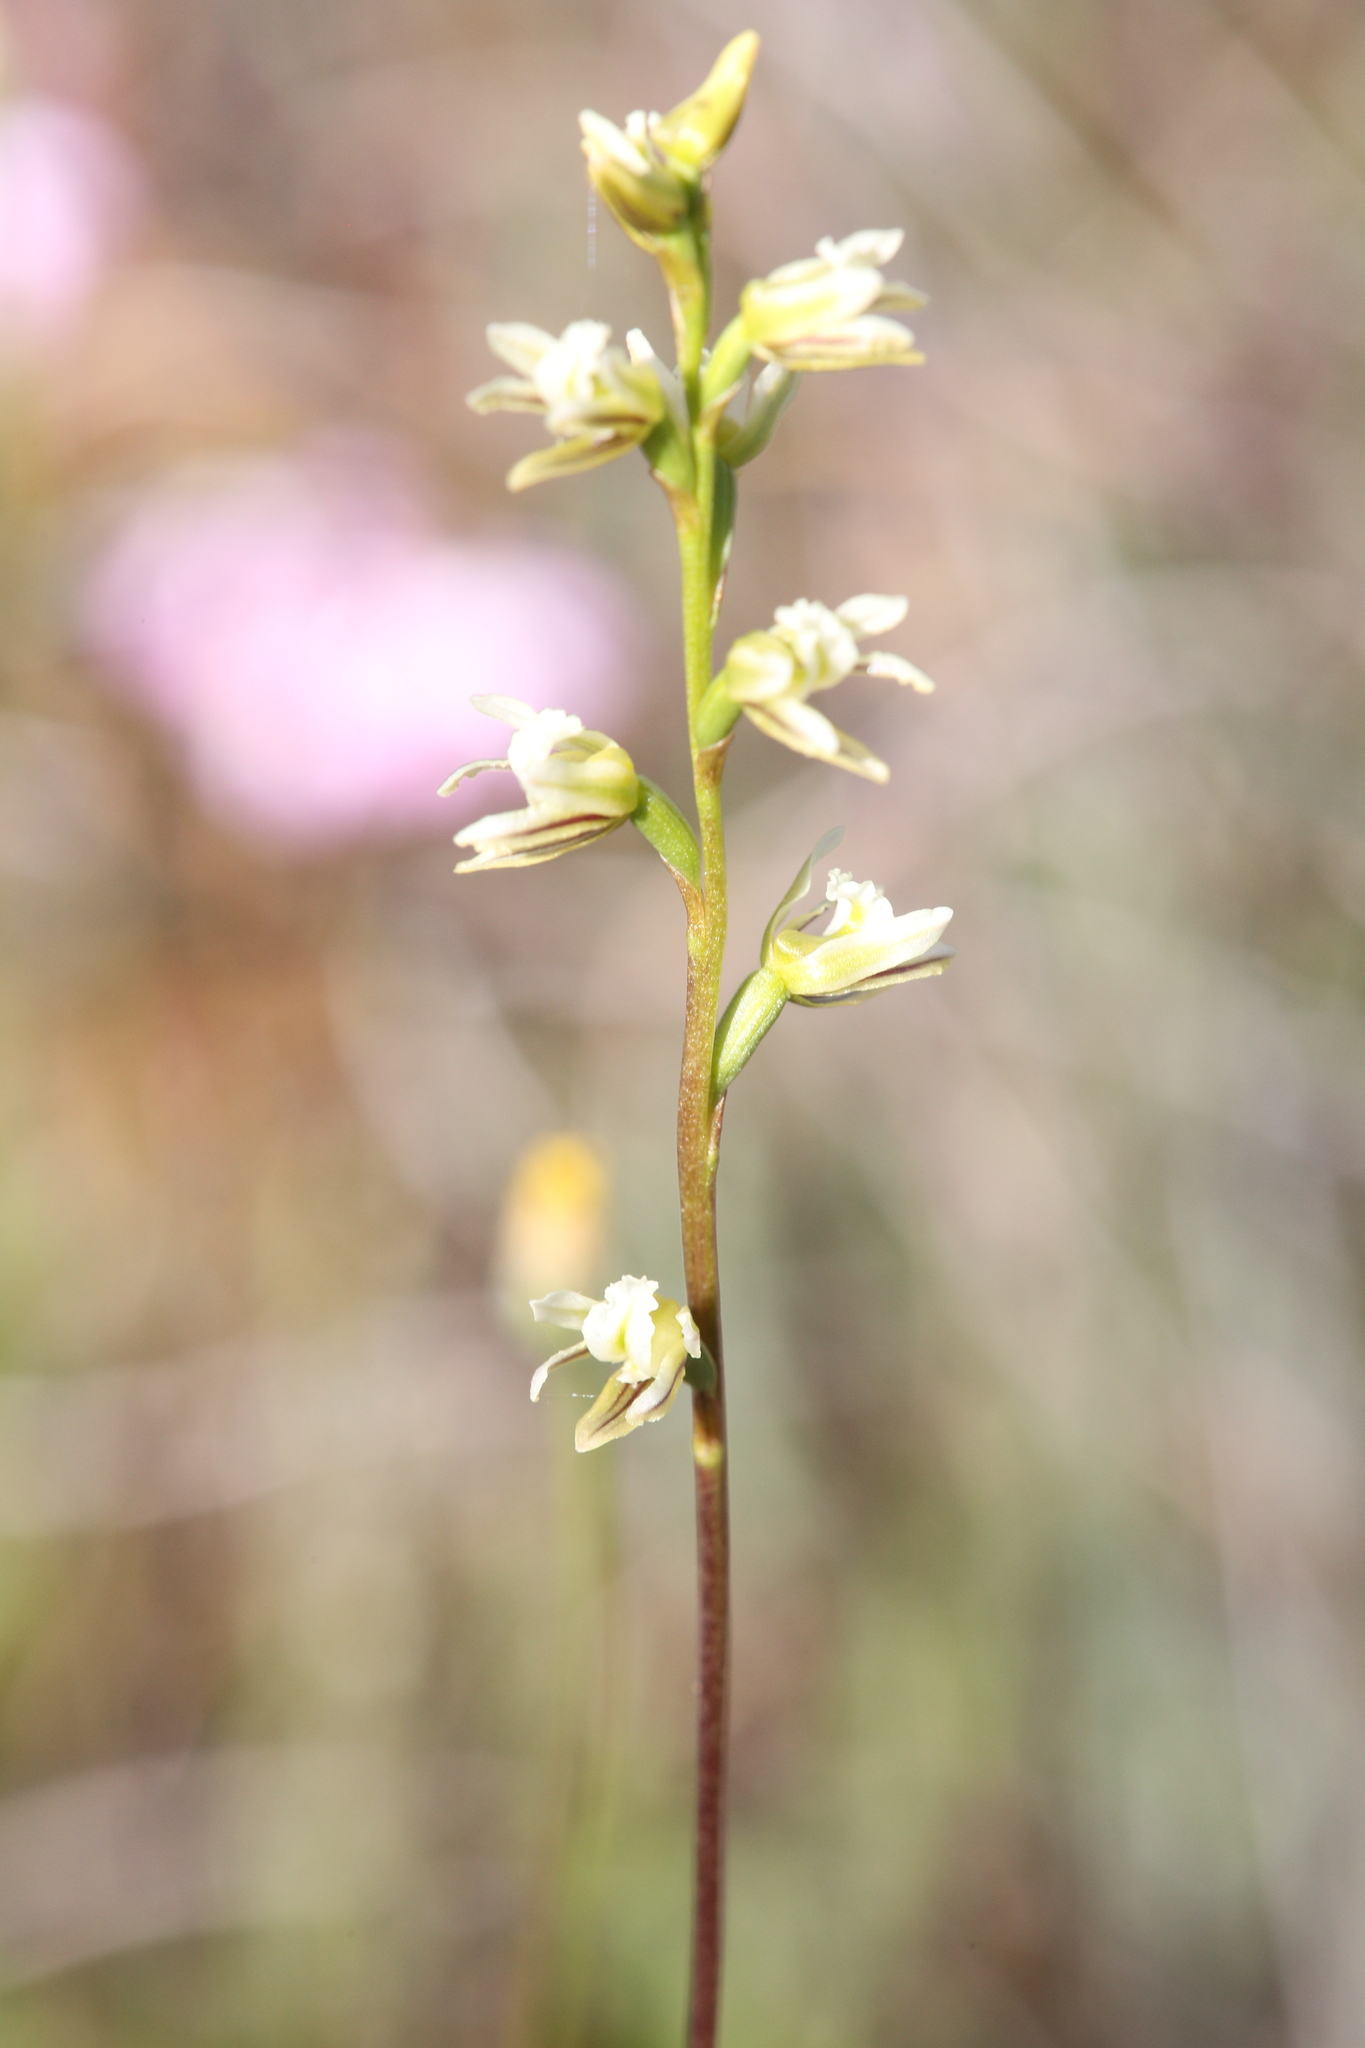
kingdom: Plantae
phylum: Tracheophyta
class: Liliopsida
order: Asparagales
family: Orchidaceae
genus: Prasophyllum
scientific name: Prasophyllum cyphochilum
